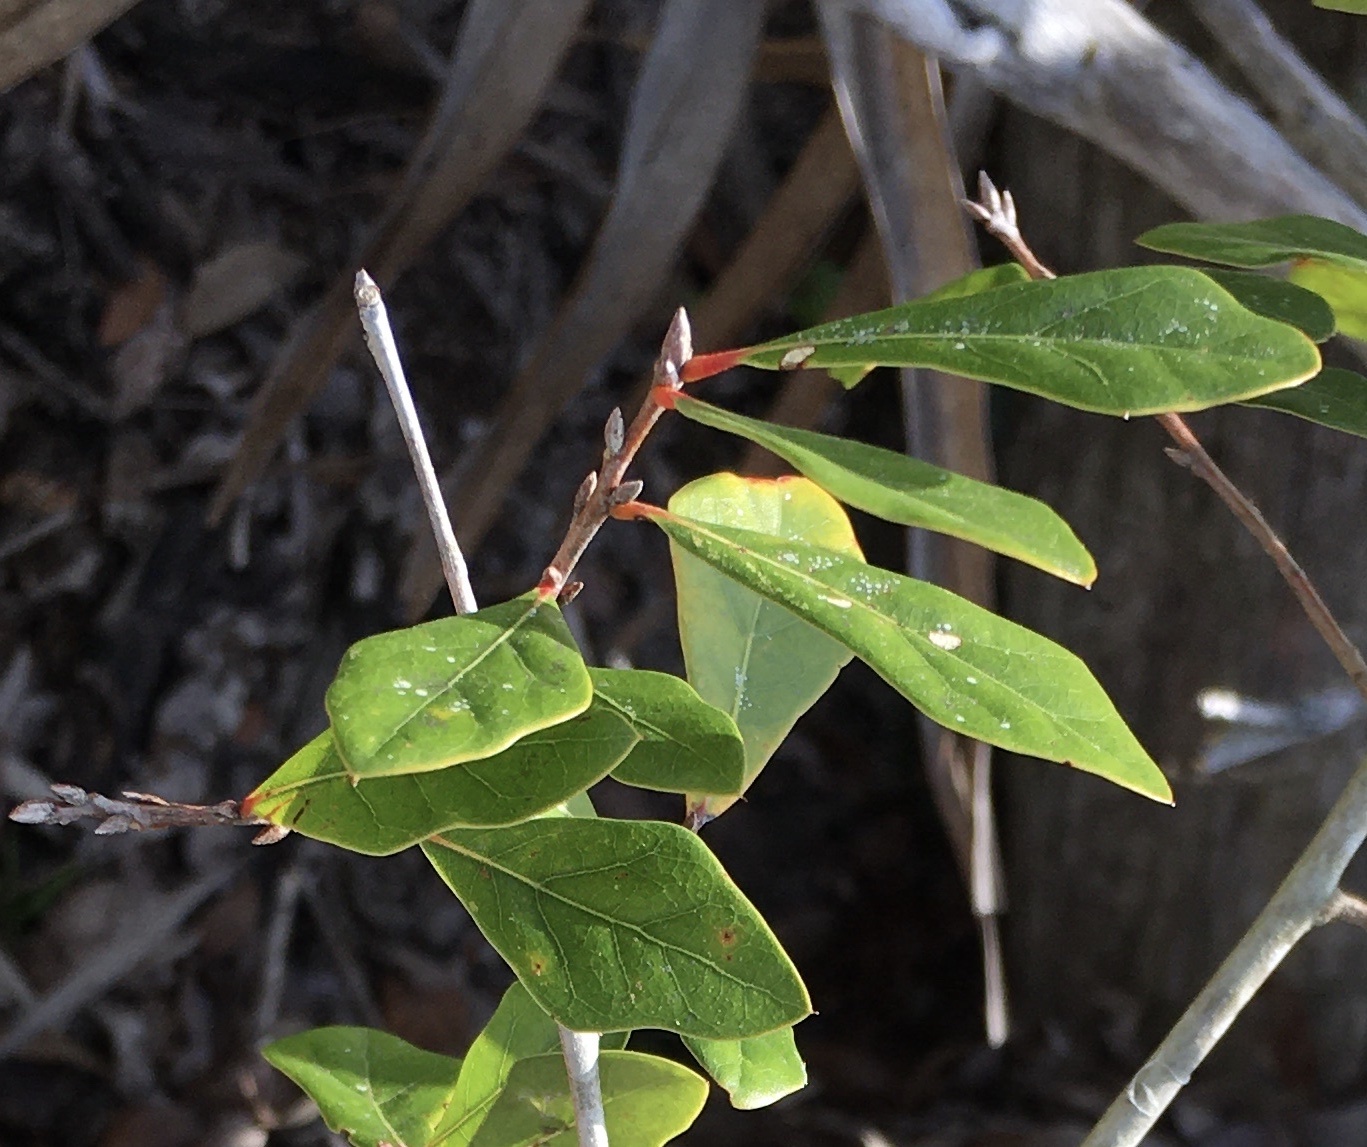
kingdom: Plantae
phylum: Tracheophyta
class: Magnoliopsida
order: Fagales
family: Fagaceae
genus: Quercus
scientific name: Quercus nigra
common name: Water oak
